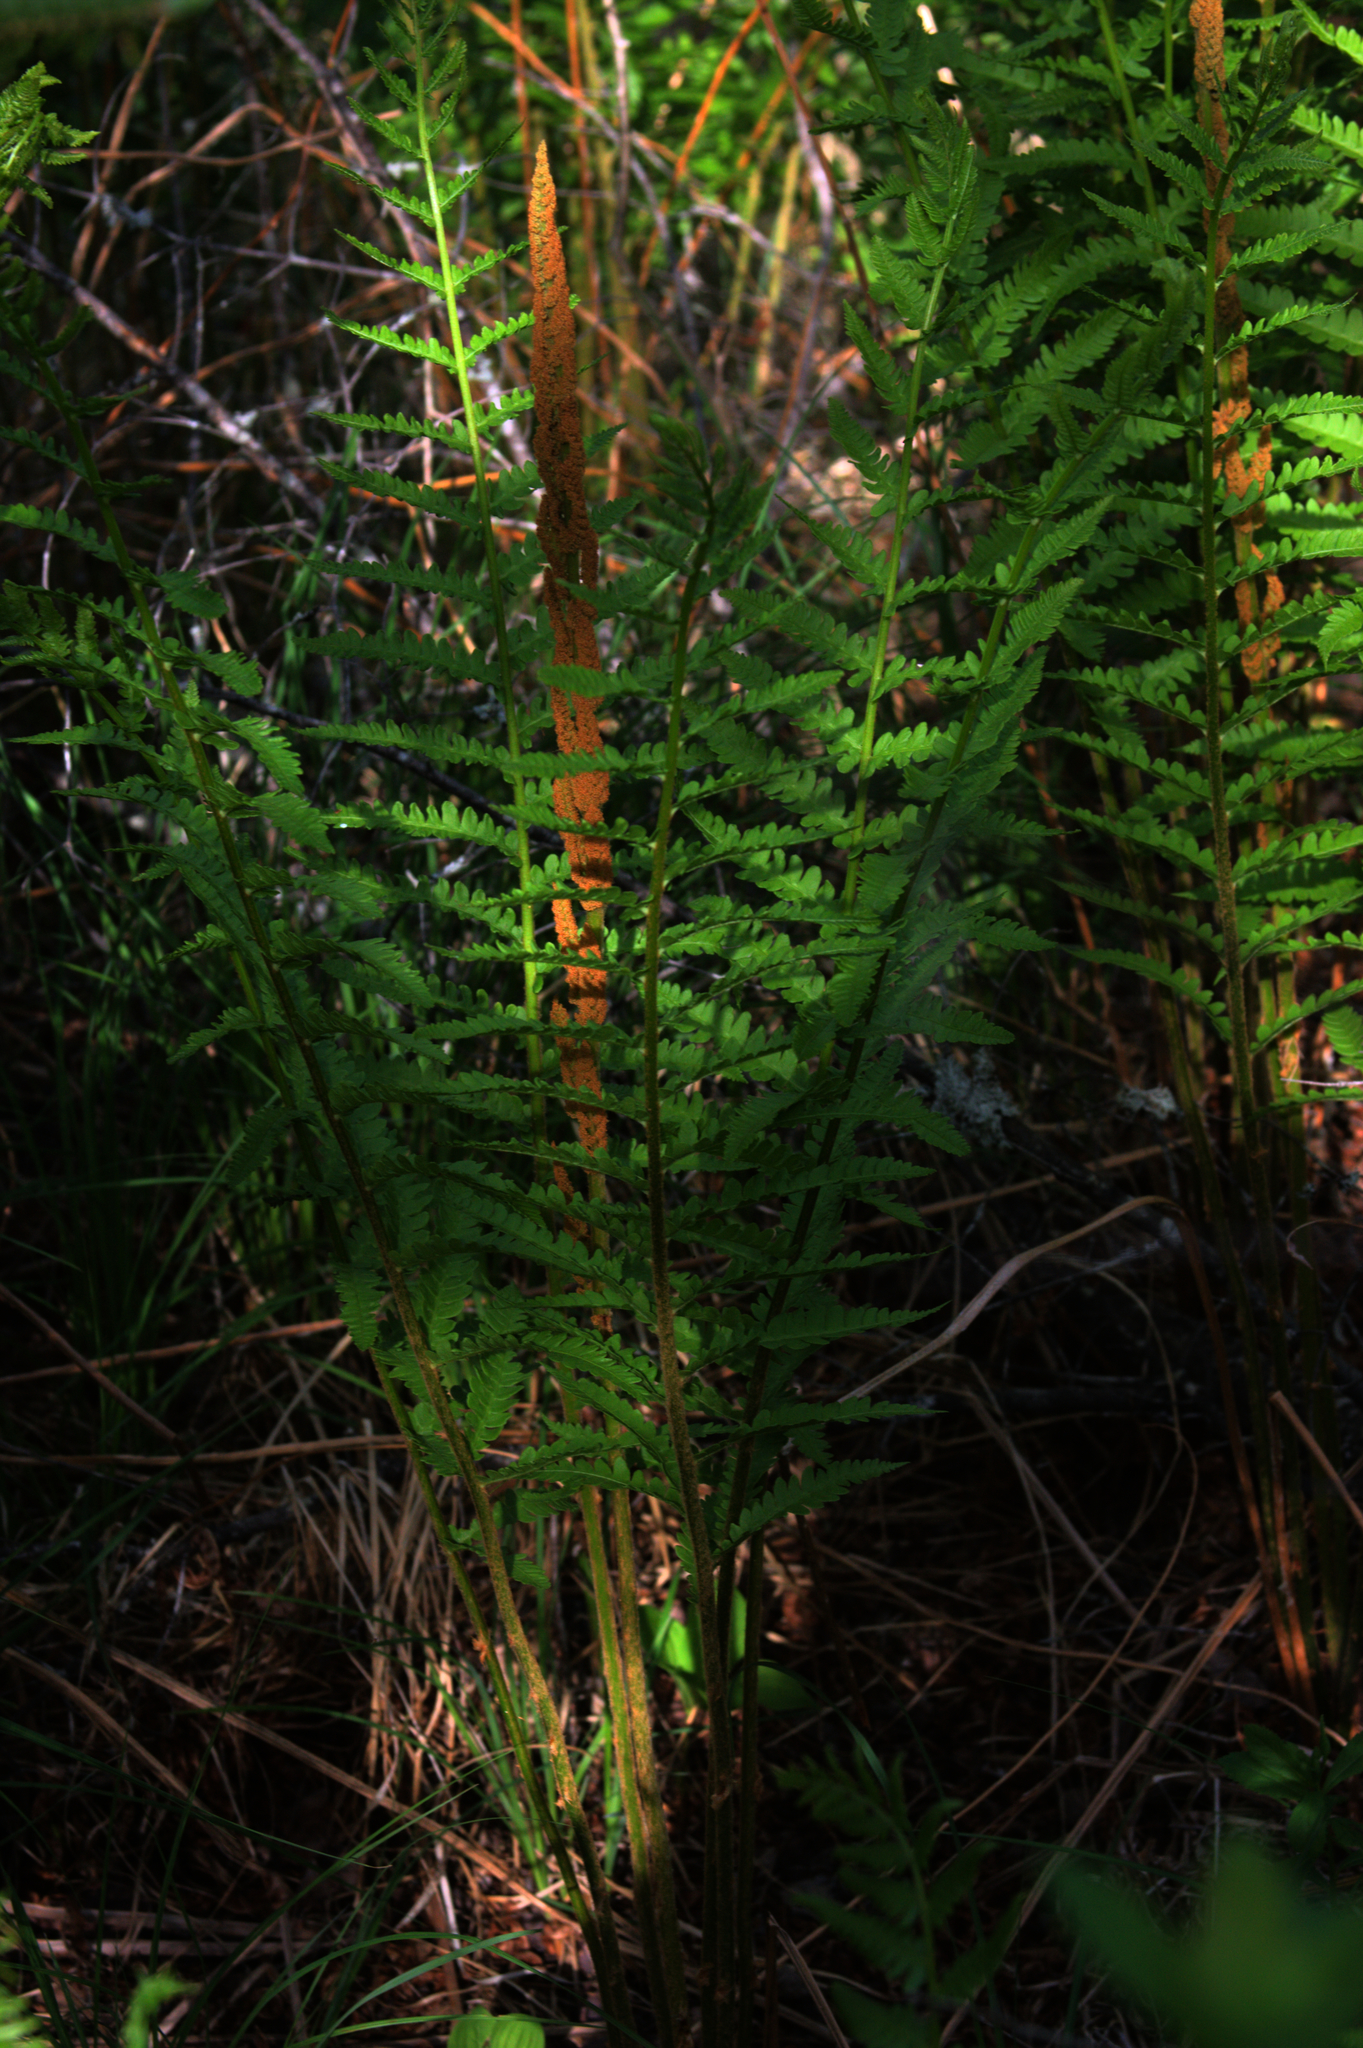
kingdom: Plantae
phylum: Tracheophyta
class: Polypodiopsida
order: Osmundales
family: Osmundaceae
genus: Osmundastrum
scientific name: Osmundastrum cinnamomeum
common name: Cinnamon fern
